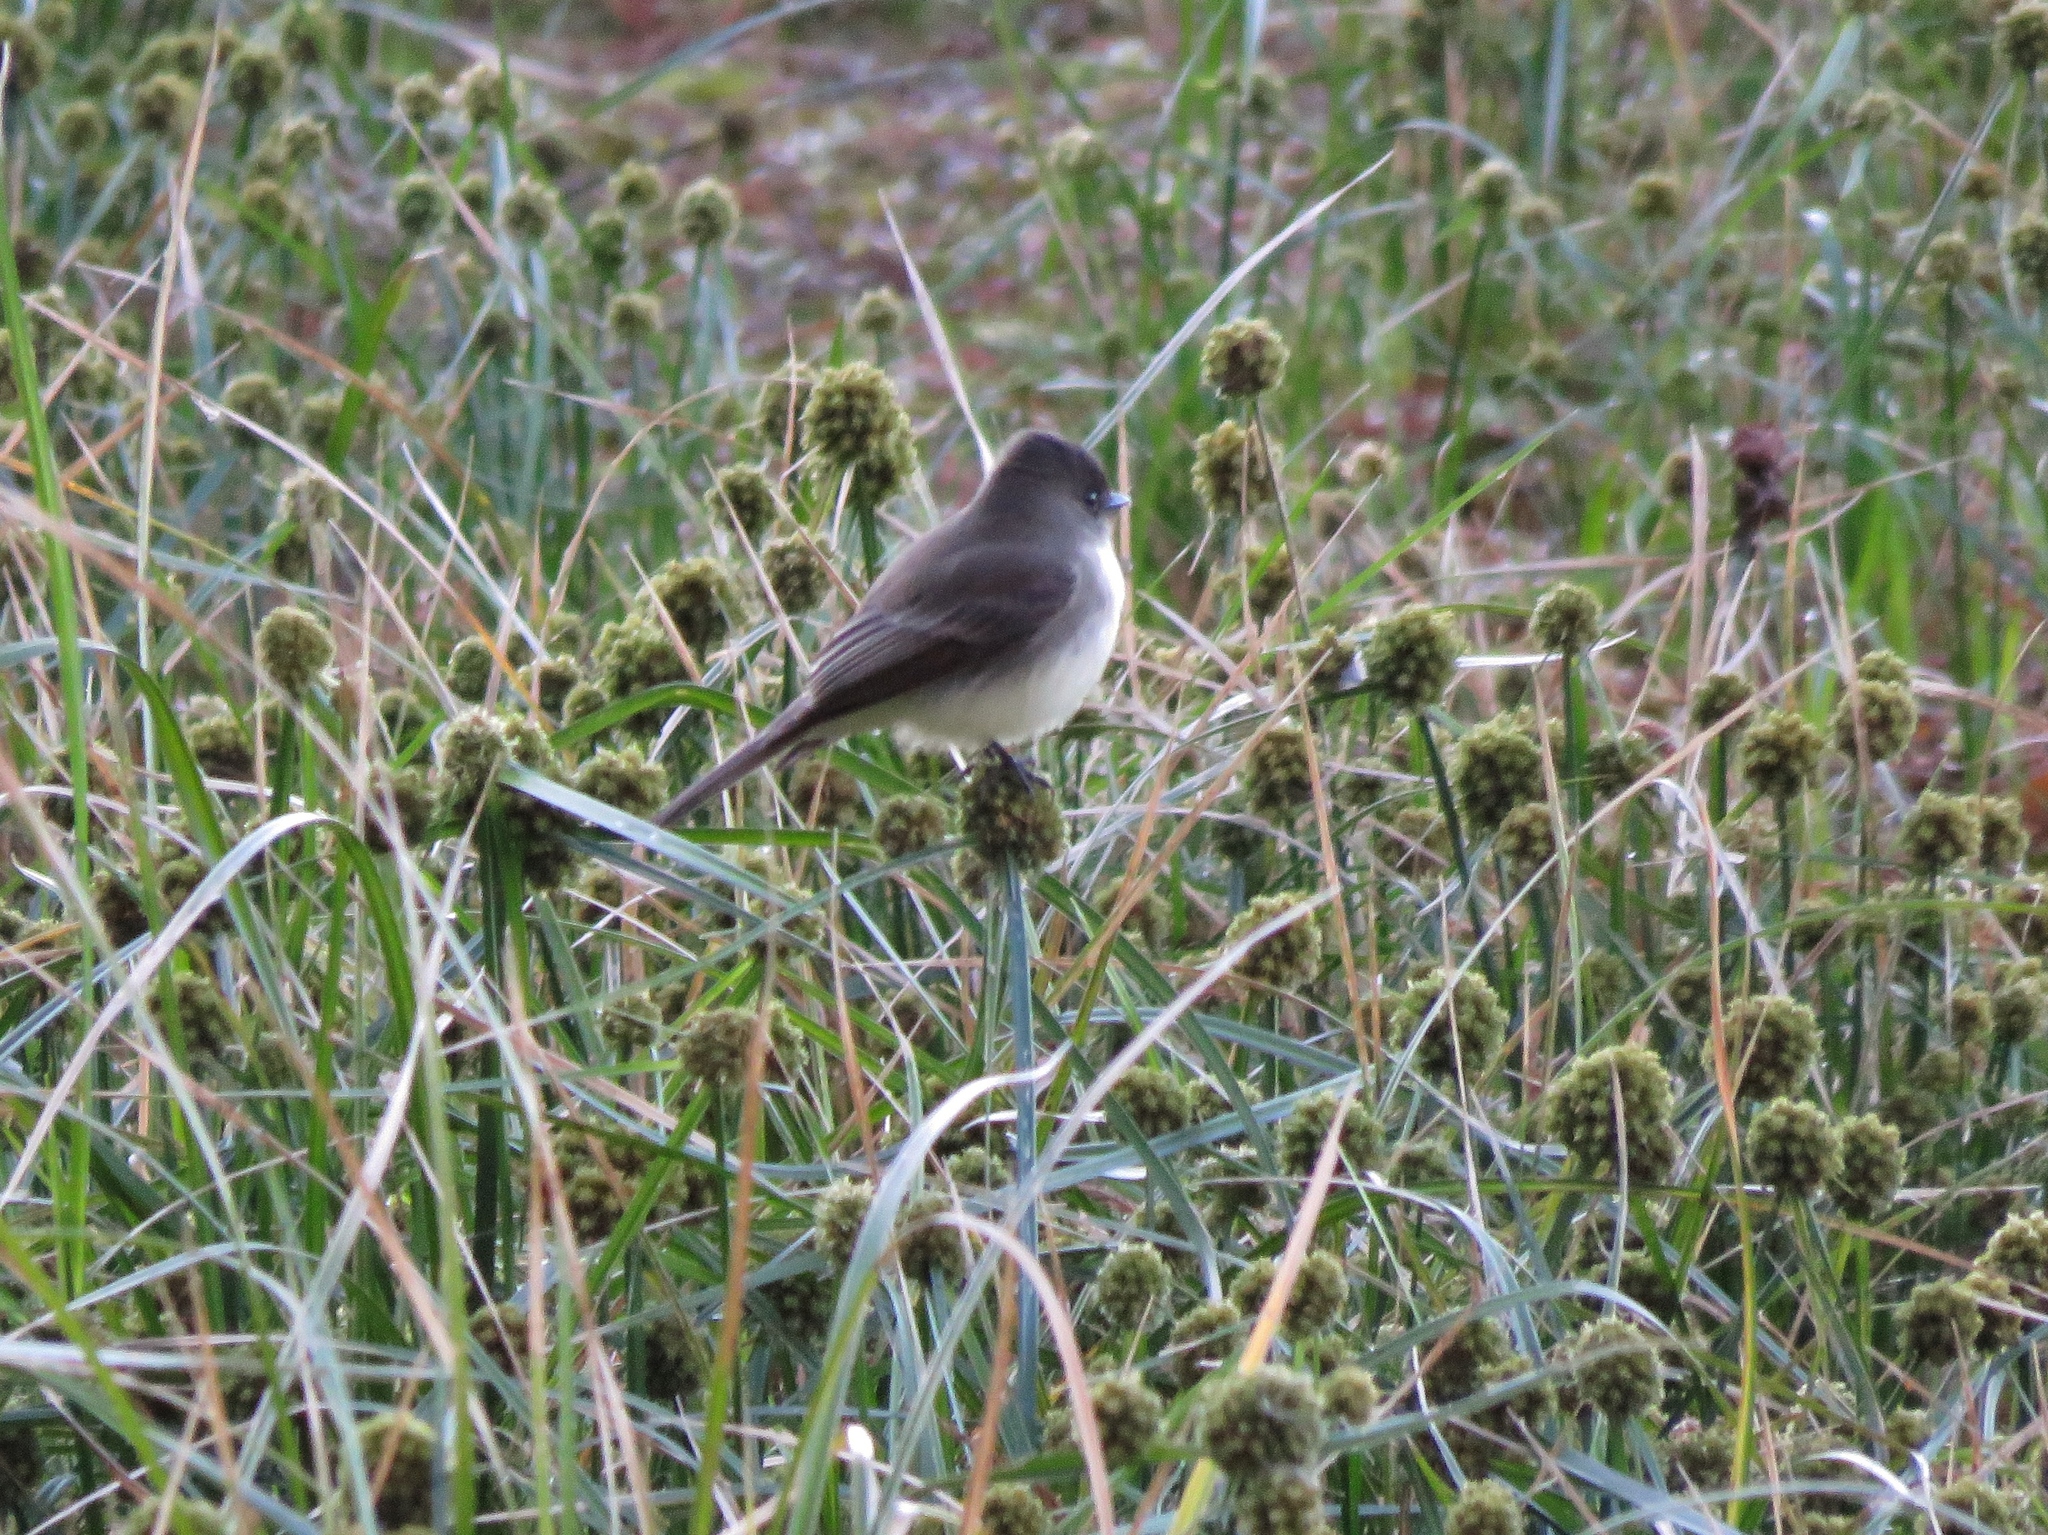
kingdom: Animalia
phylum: Chordata
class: Aves
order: Passeriformes
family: Tyrannidae
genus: Sayornis
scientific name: Sayornis phoebe
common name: Eastern phoebe
